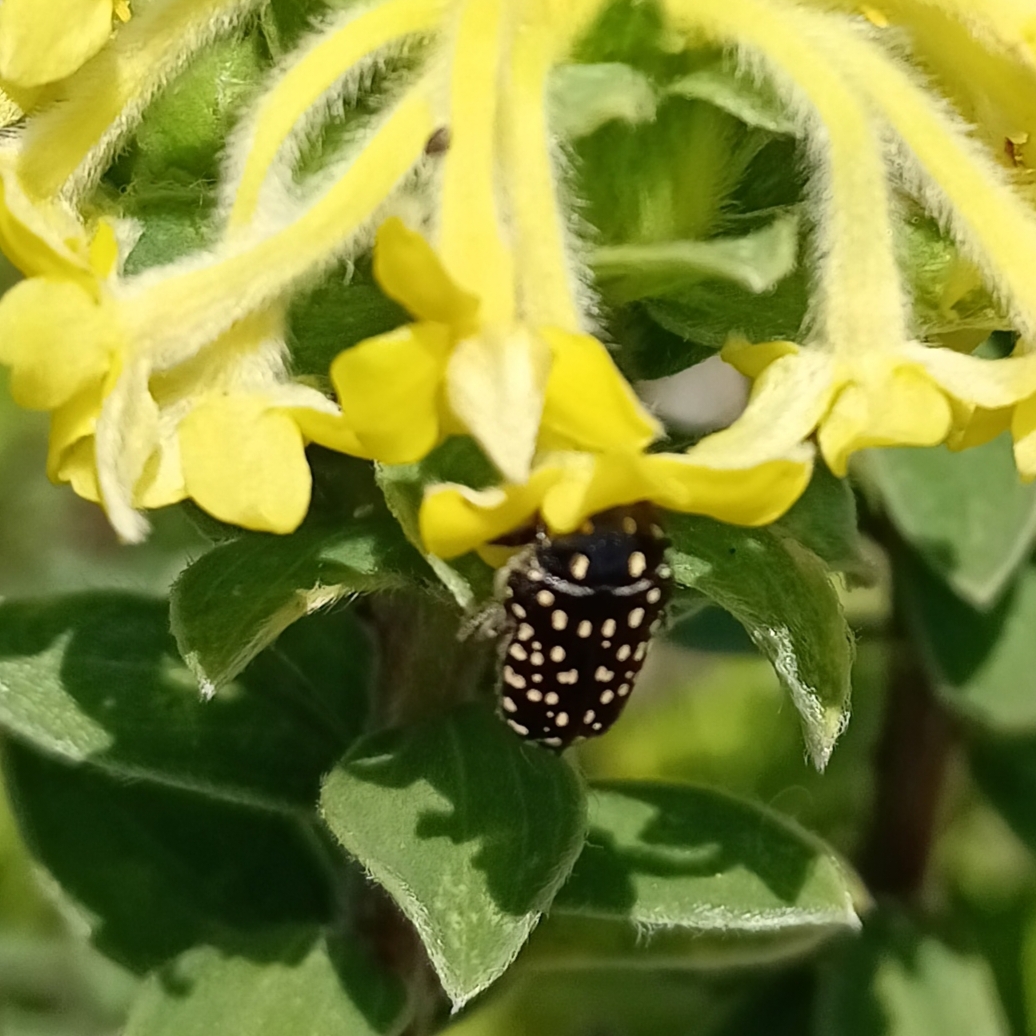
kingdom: Animalia
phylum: Arthropoda
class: Insecta
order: Coleoptera
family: Scarabaeidae
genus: Oxythyrea
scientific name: Oxythyrea
